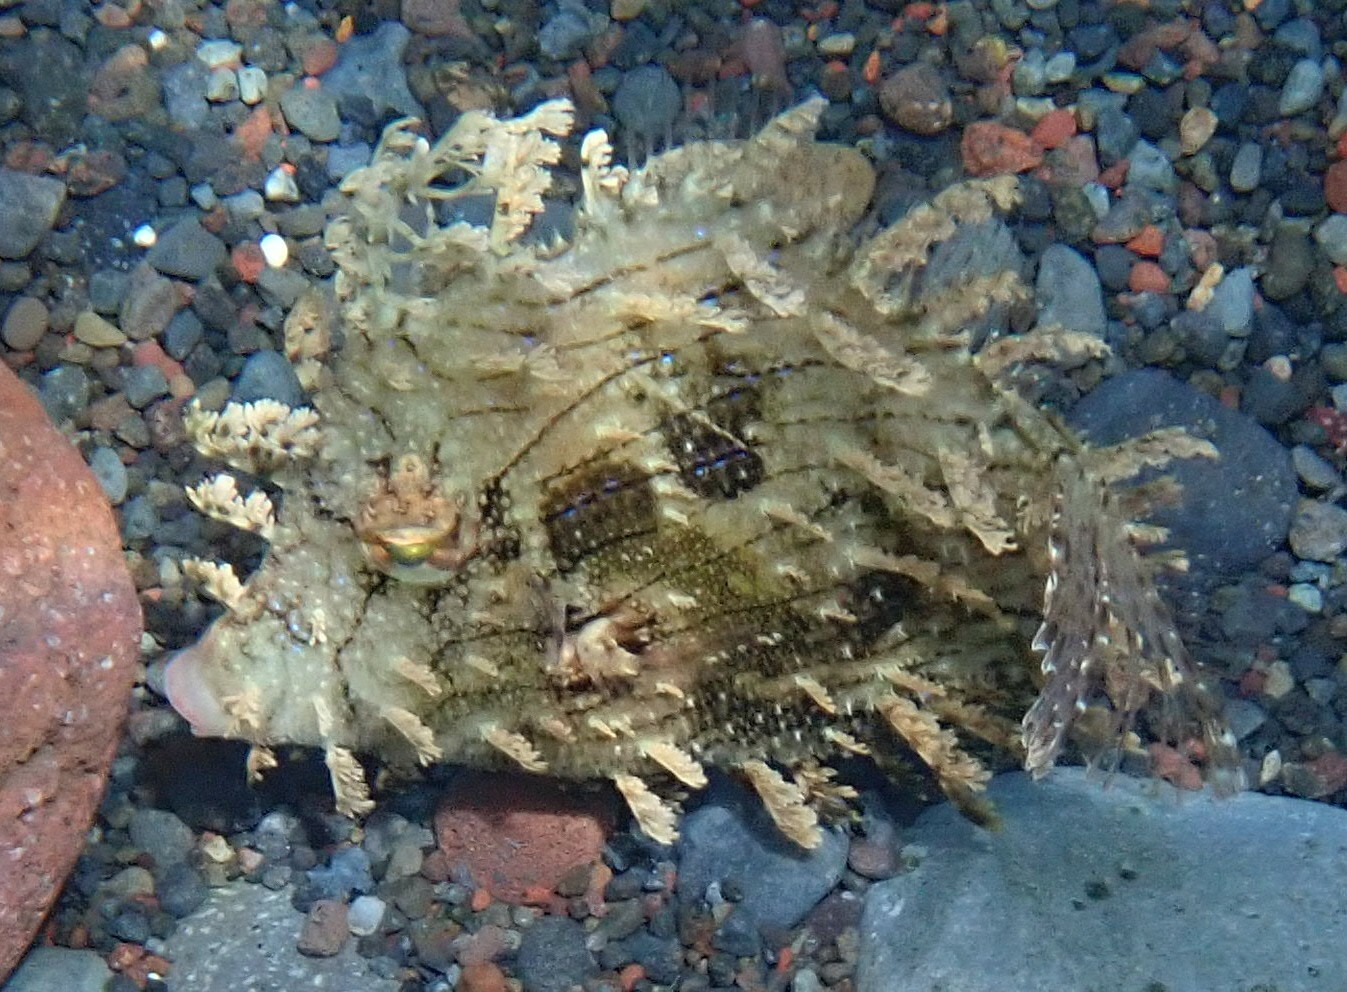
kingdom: Animalia
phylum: Chordata
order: Tetraodontiformes
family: Monacanthidae
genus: Chaetodermis
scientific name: Chaetodermis penicilligerus
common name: Leafy filefish
